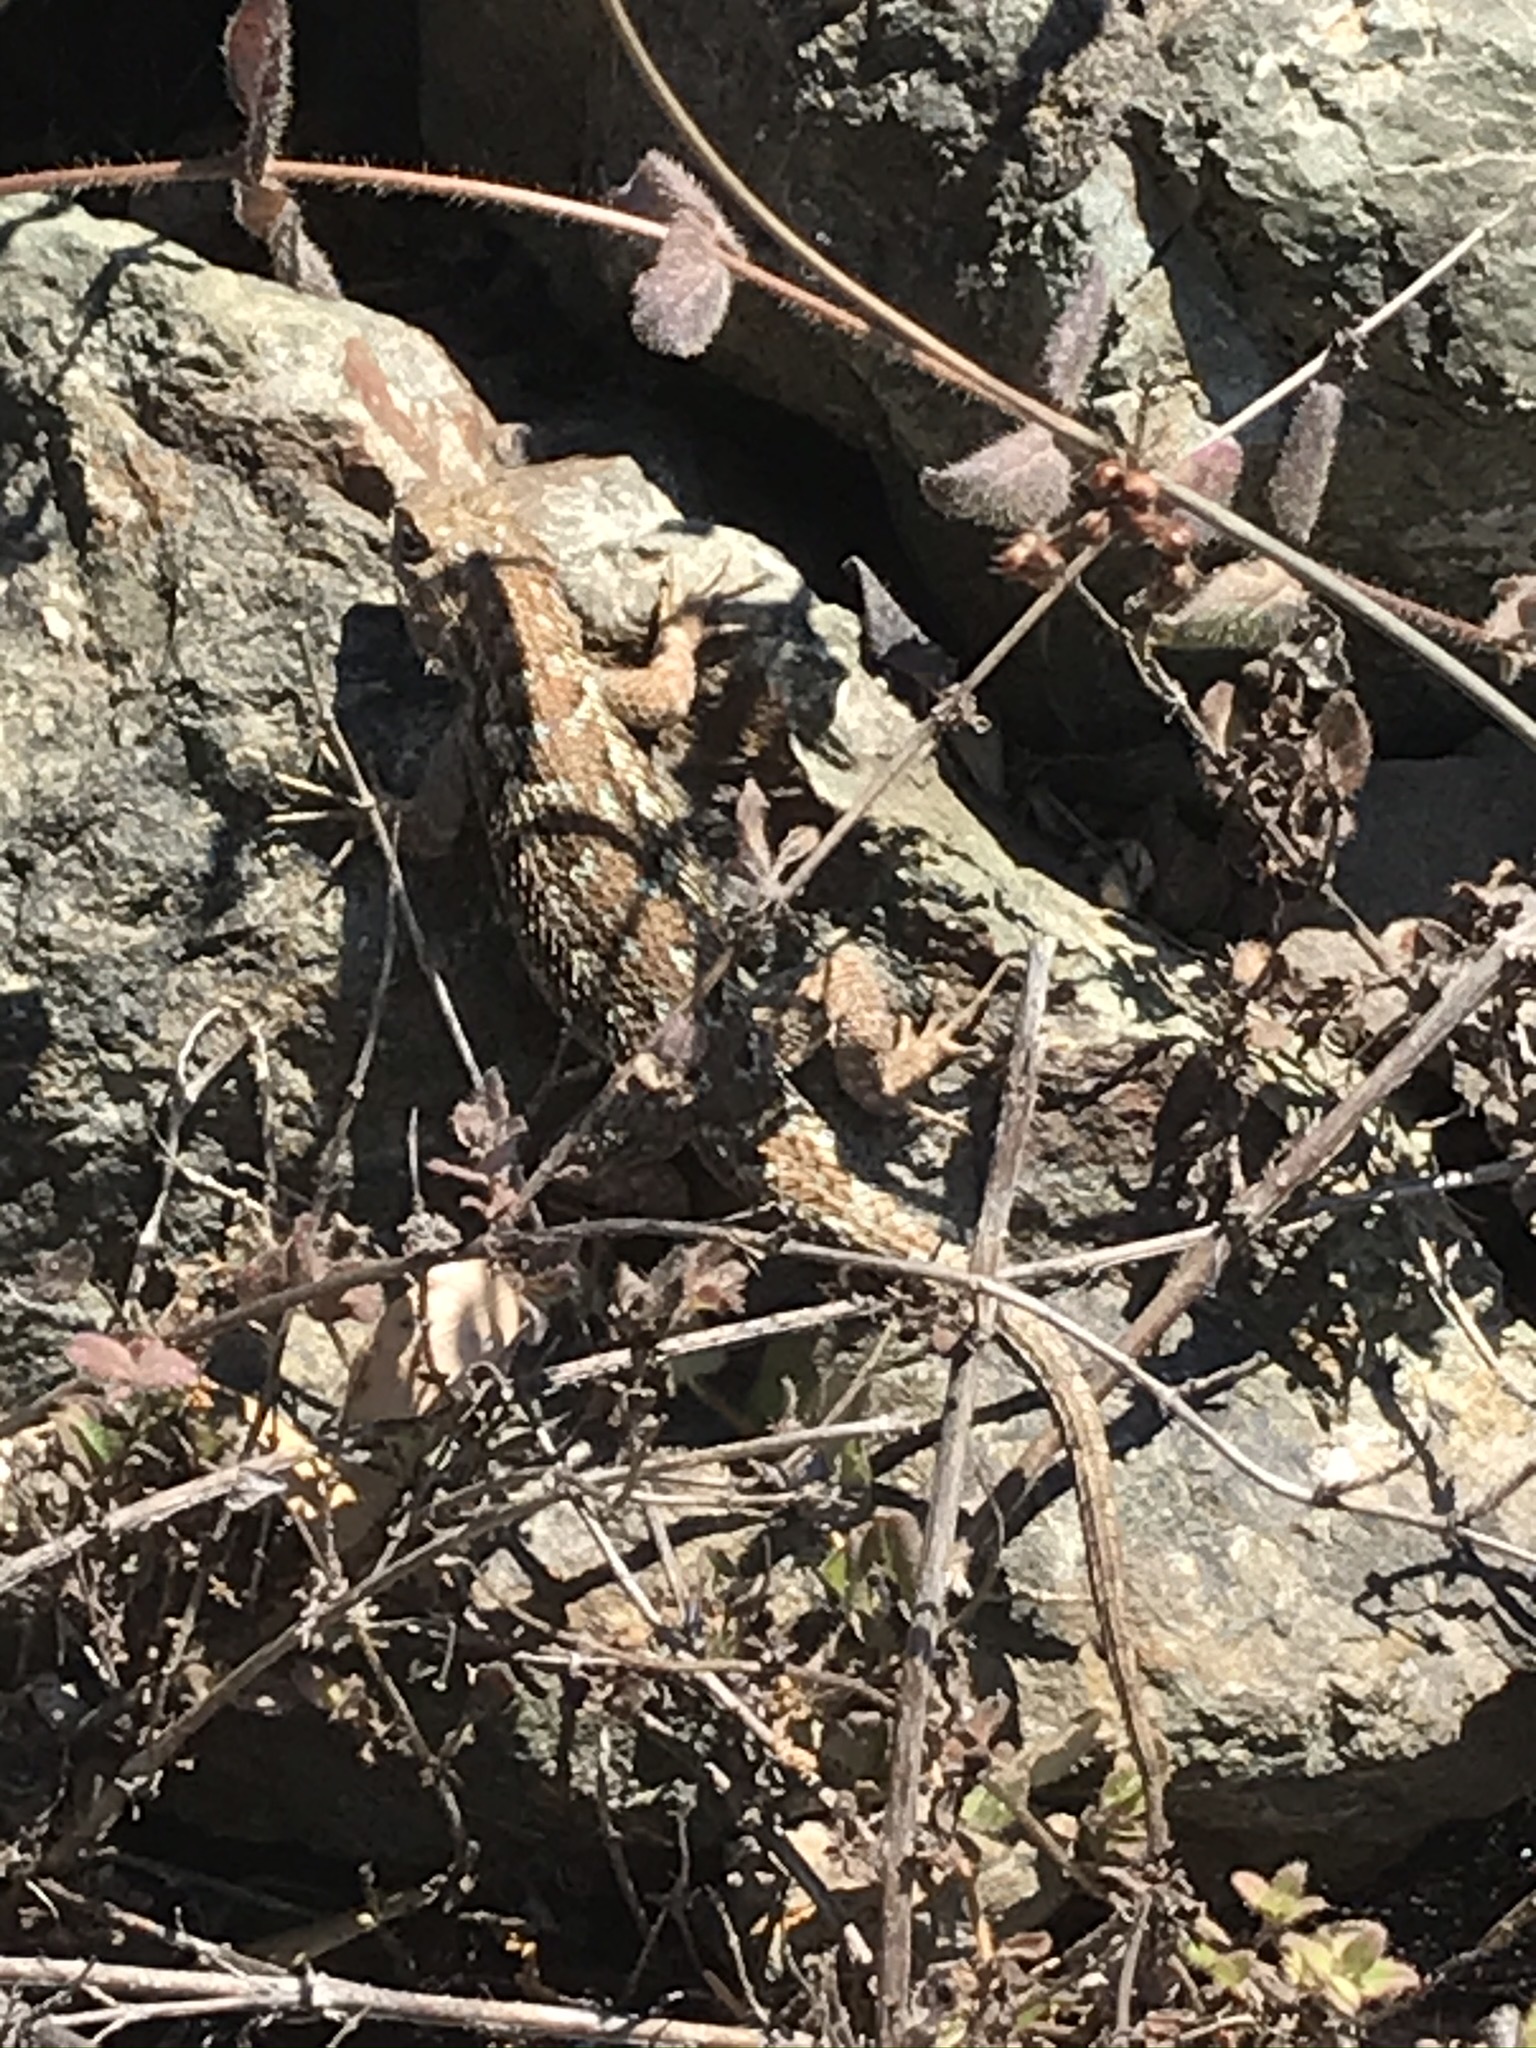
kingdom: Animalia
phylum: Chordata
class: Squamata
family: Phrynosomatidae
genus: Sceloporus
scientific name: Sceloporus occidentalis
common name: Western fence lizard
